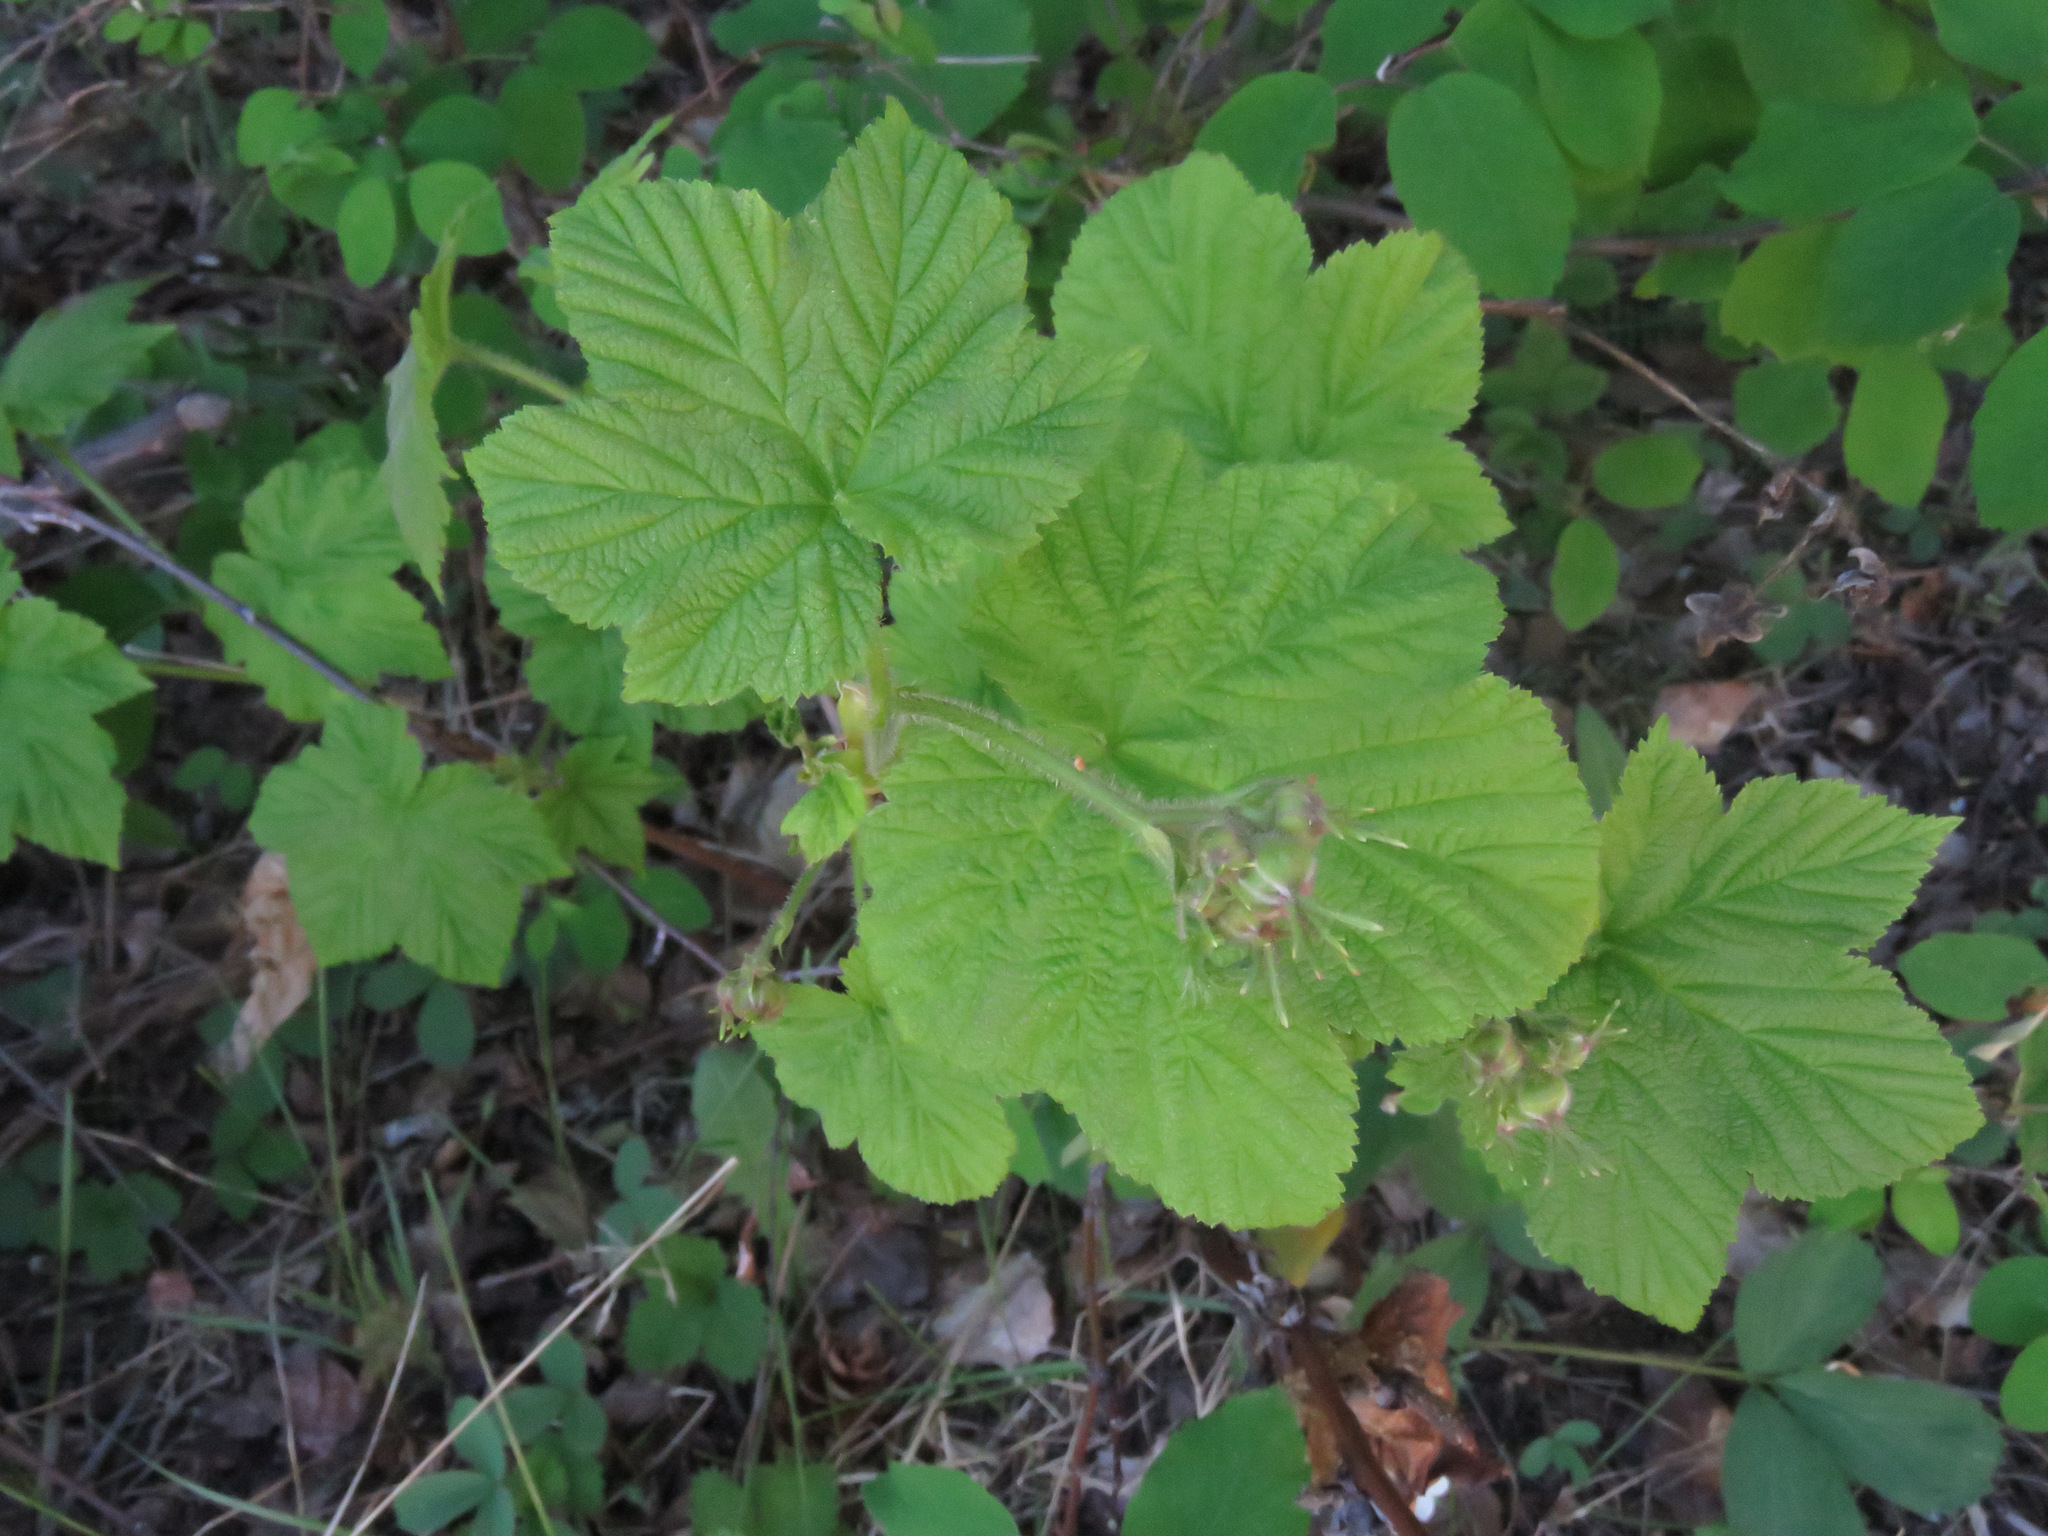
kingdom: Plantae
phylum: Tracheophyta
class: Magnoliopsida
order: Rosales
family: Rosaceae
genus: Rubus
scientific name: Rubus parviflorus
